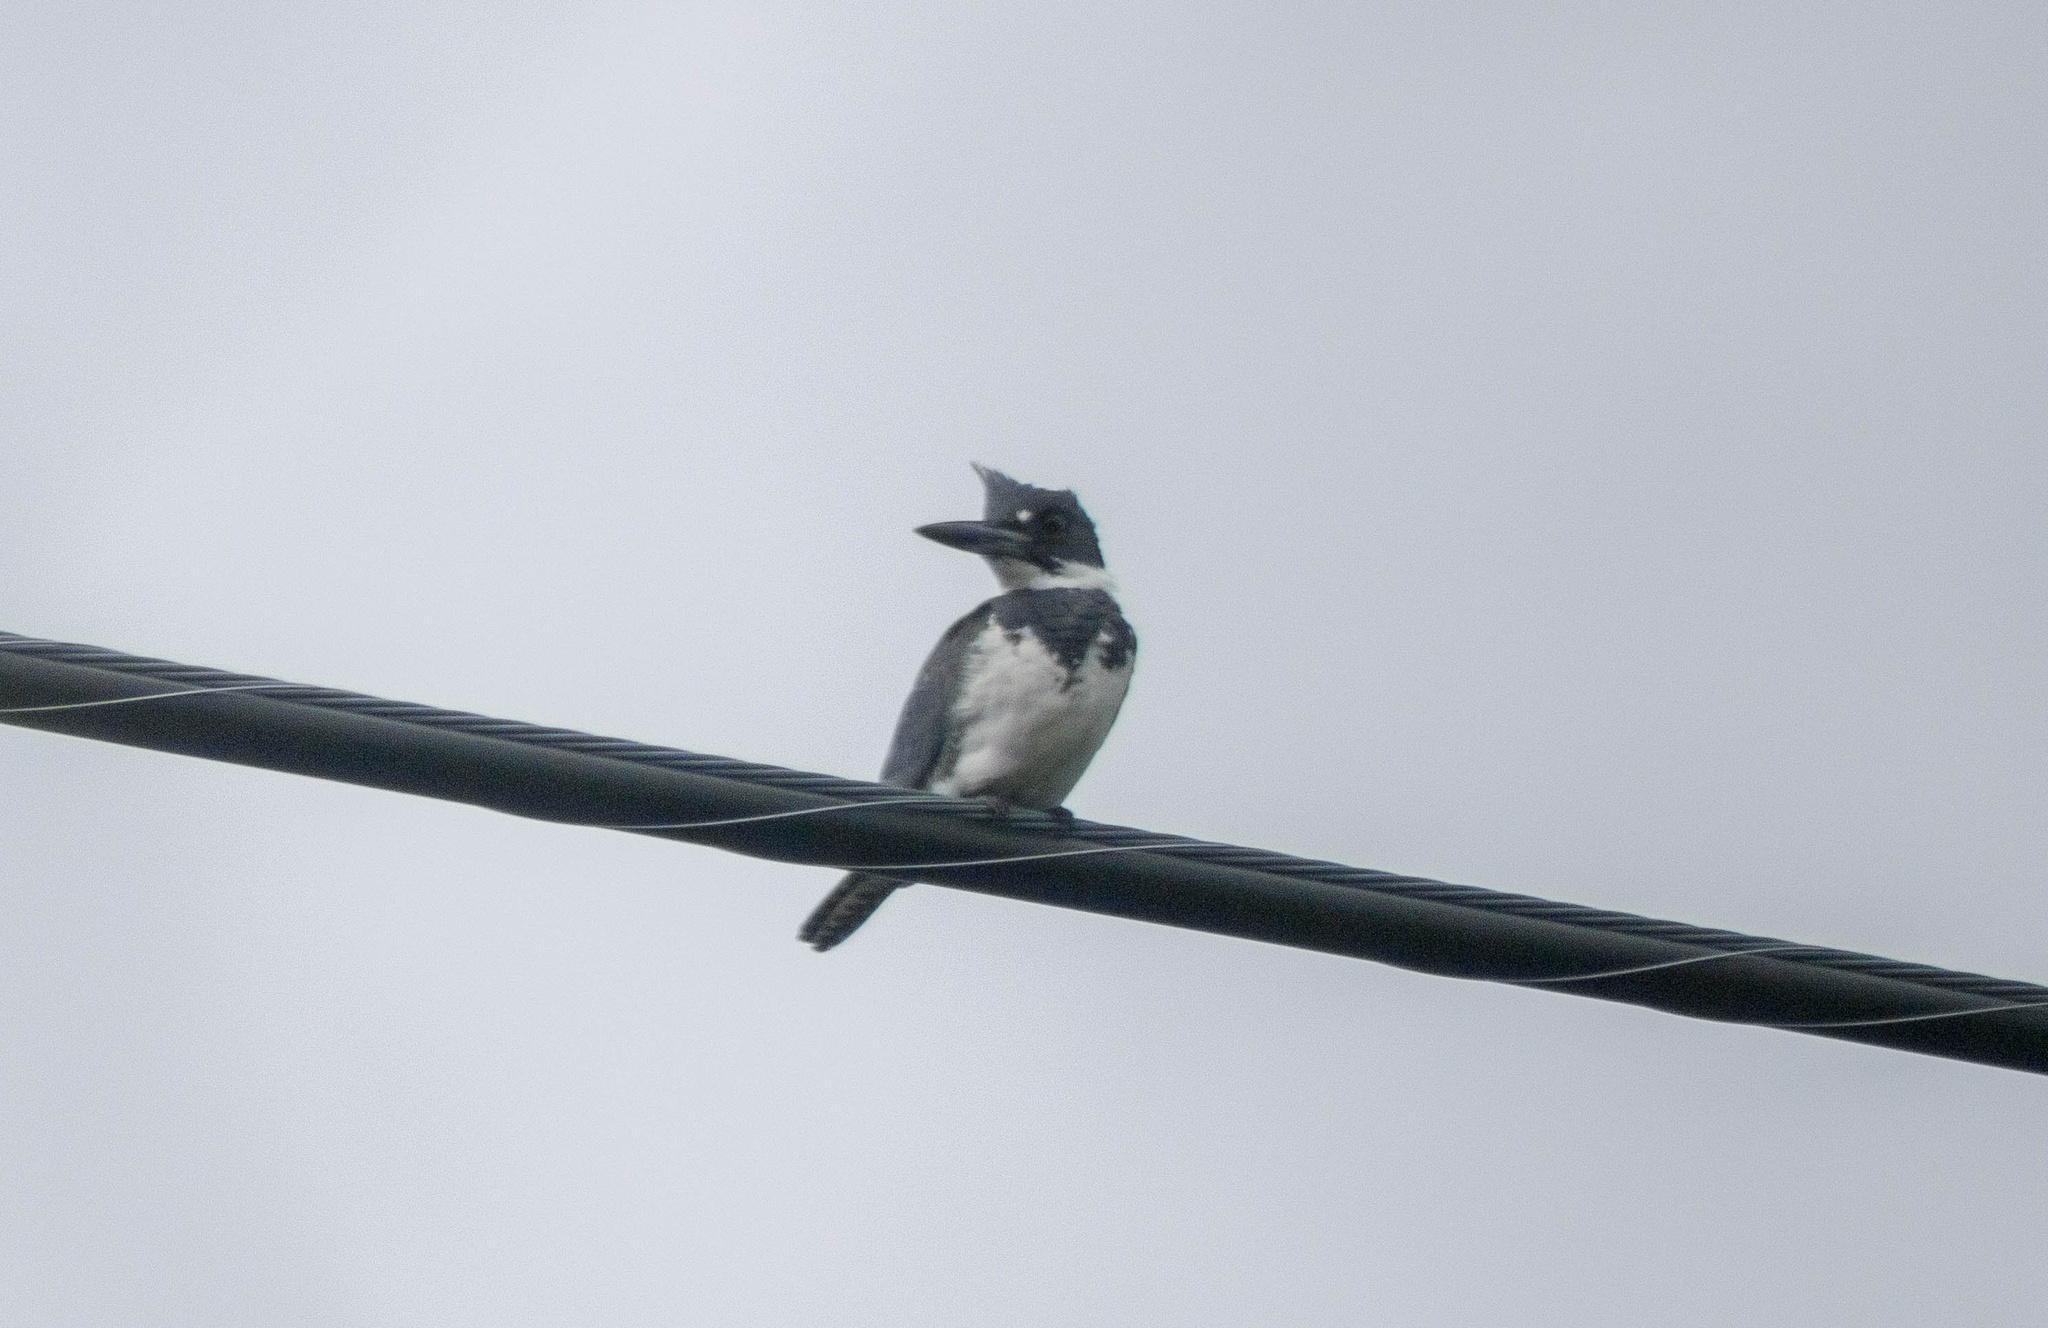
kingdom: Animalia
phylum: Chordata
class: Aves
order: Coraciiformes
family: Alcedinidae
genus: Megaceryle
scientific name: Megaceryle alcyon
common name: Belted kingfisher
